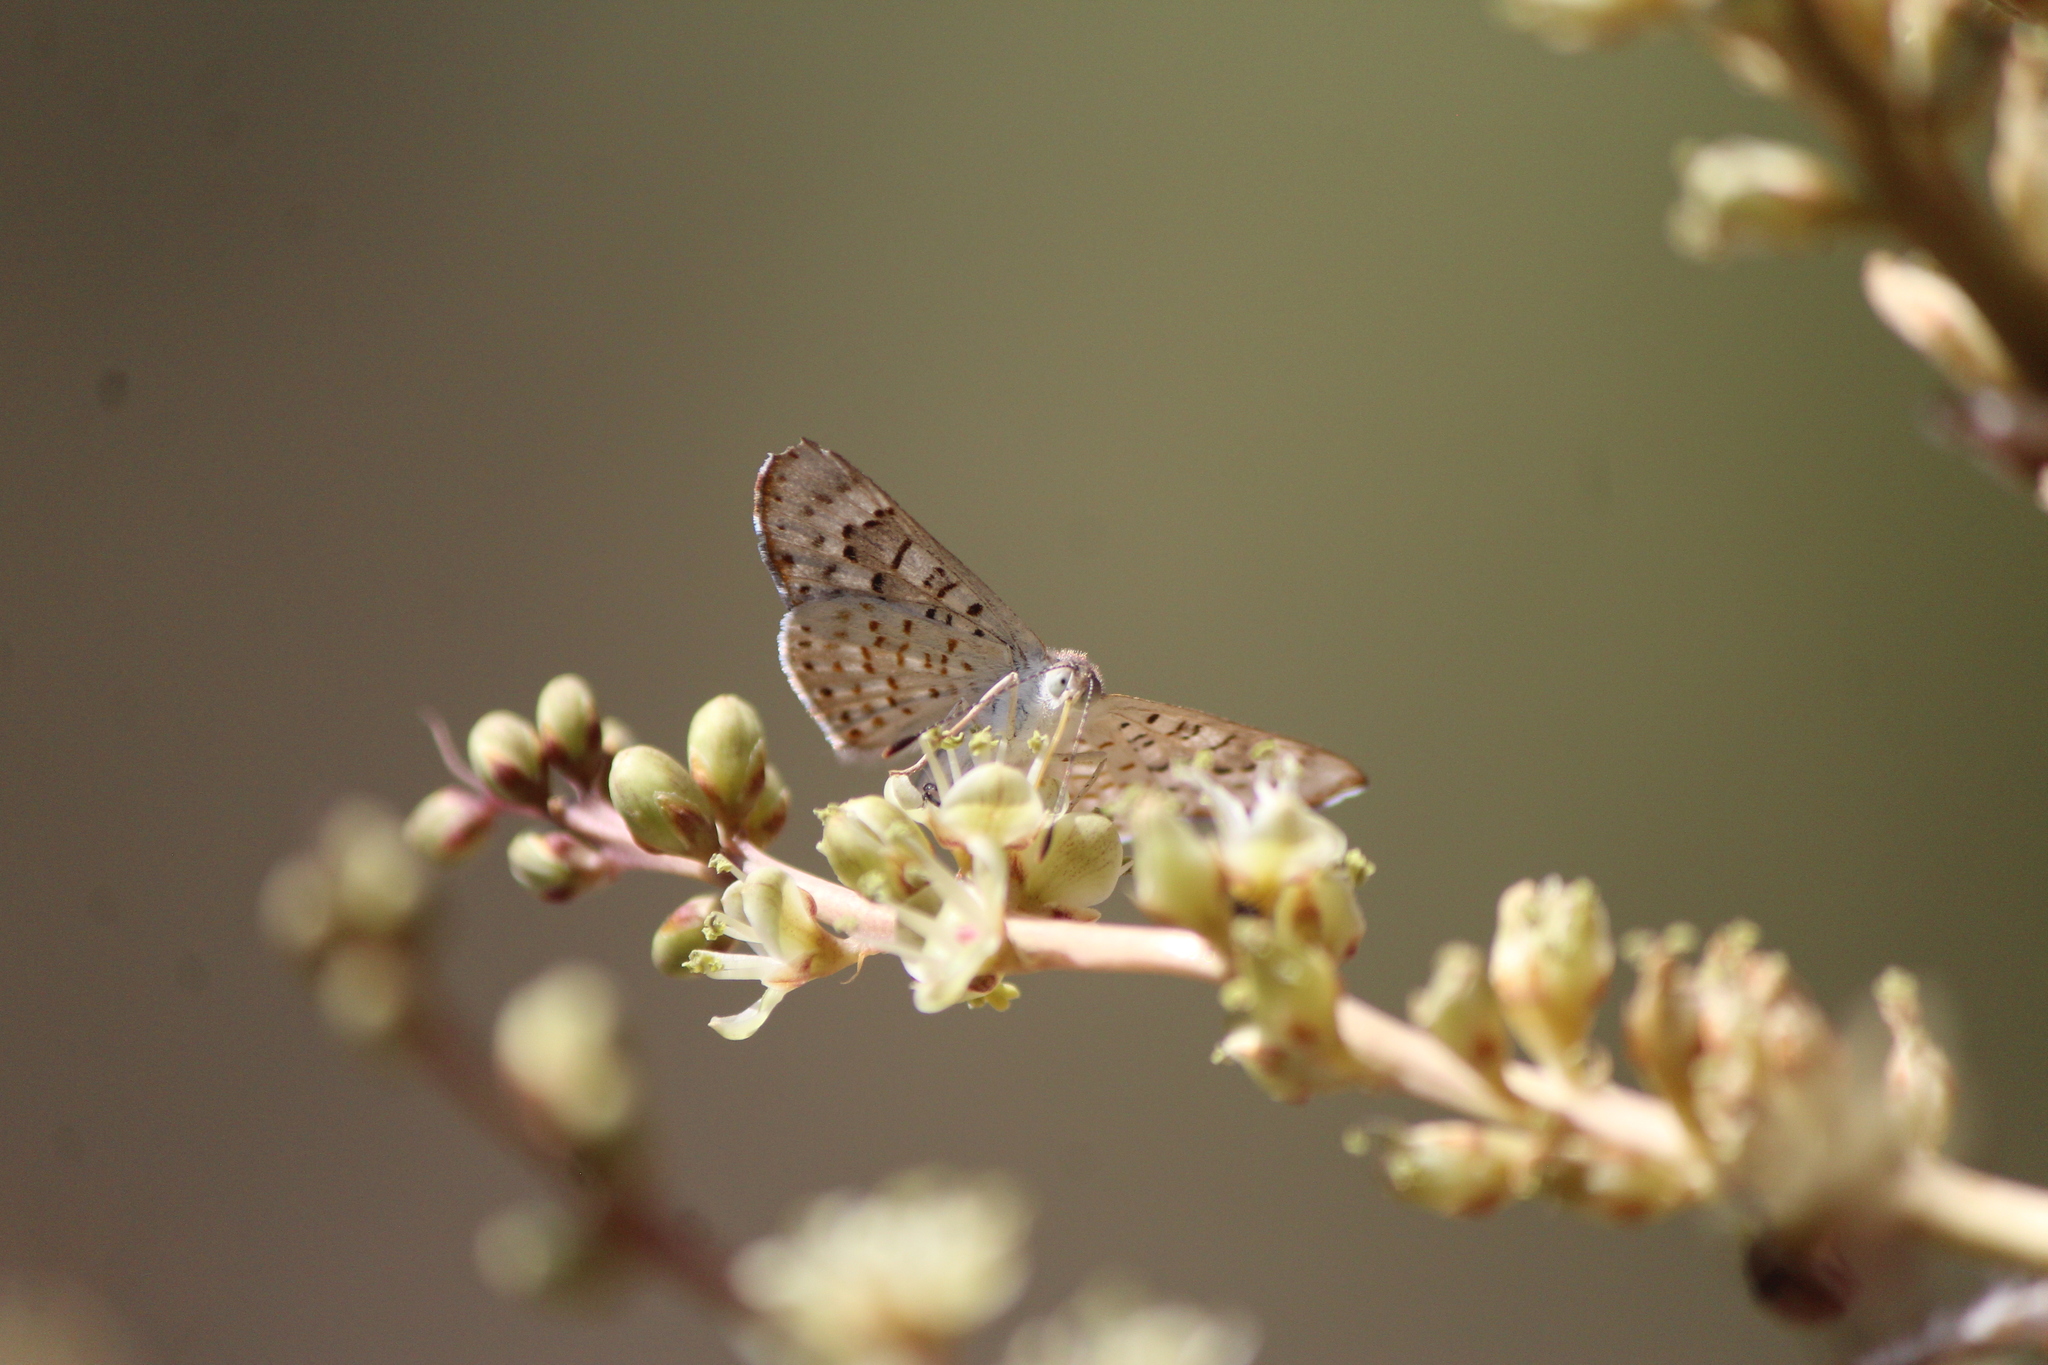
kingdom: Animalia
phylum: Arthropoda
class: Insecta
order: Lepidoptera
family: Riodinidae
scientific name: Riodinidae
